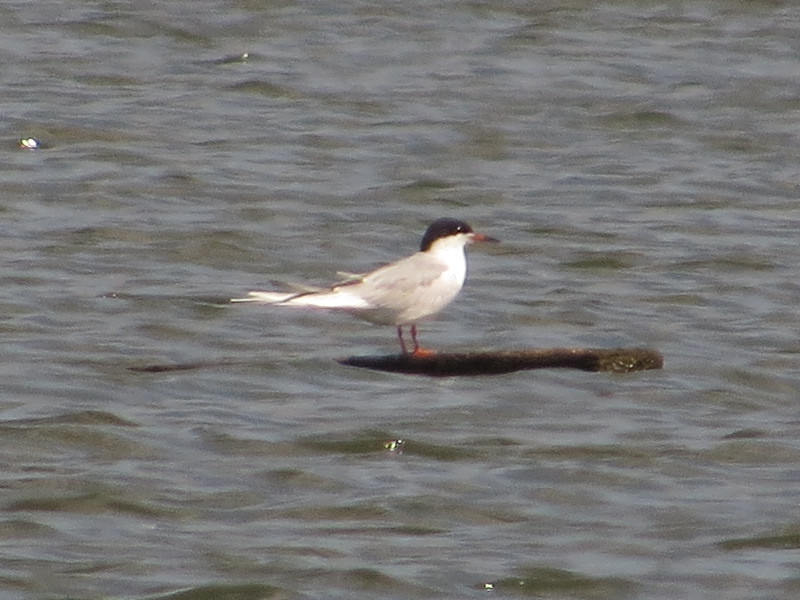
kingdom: Animalia
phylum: Chordata
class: Aves
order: Charadriiformes
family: Laridae
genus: Sterna
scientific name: Sterna forsteri
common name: Forster's tern
